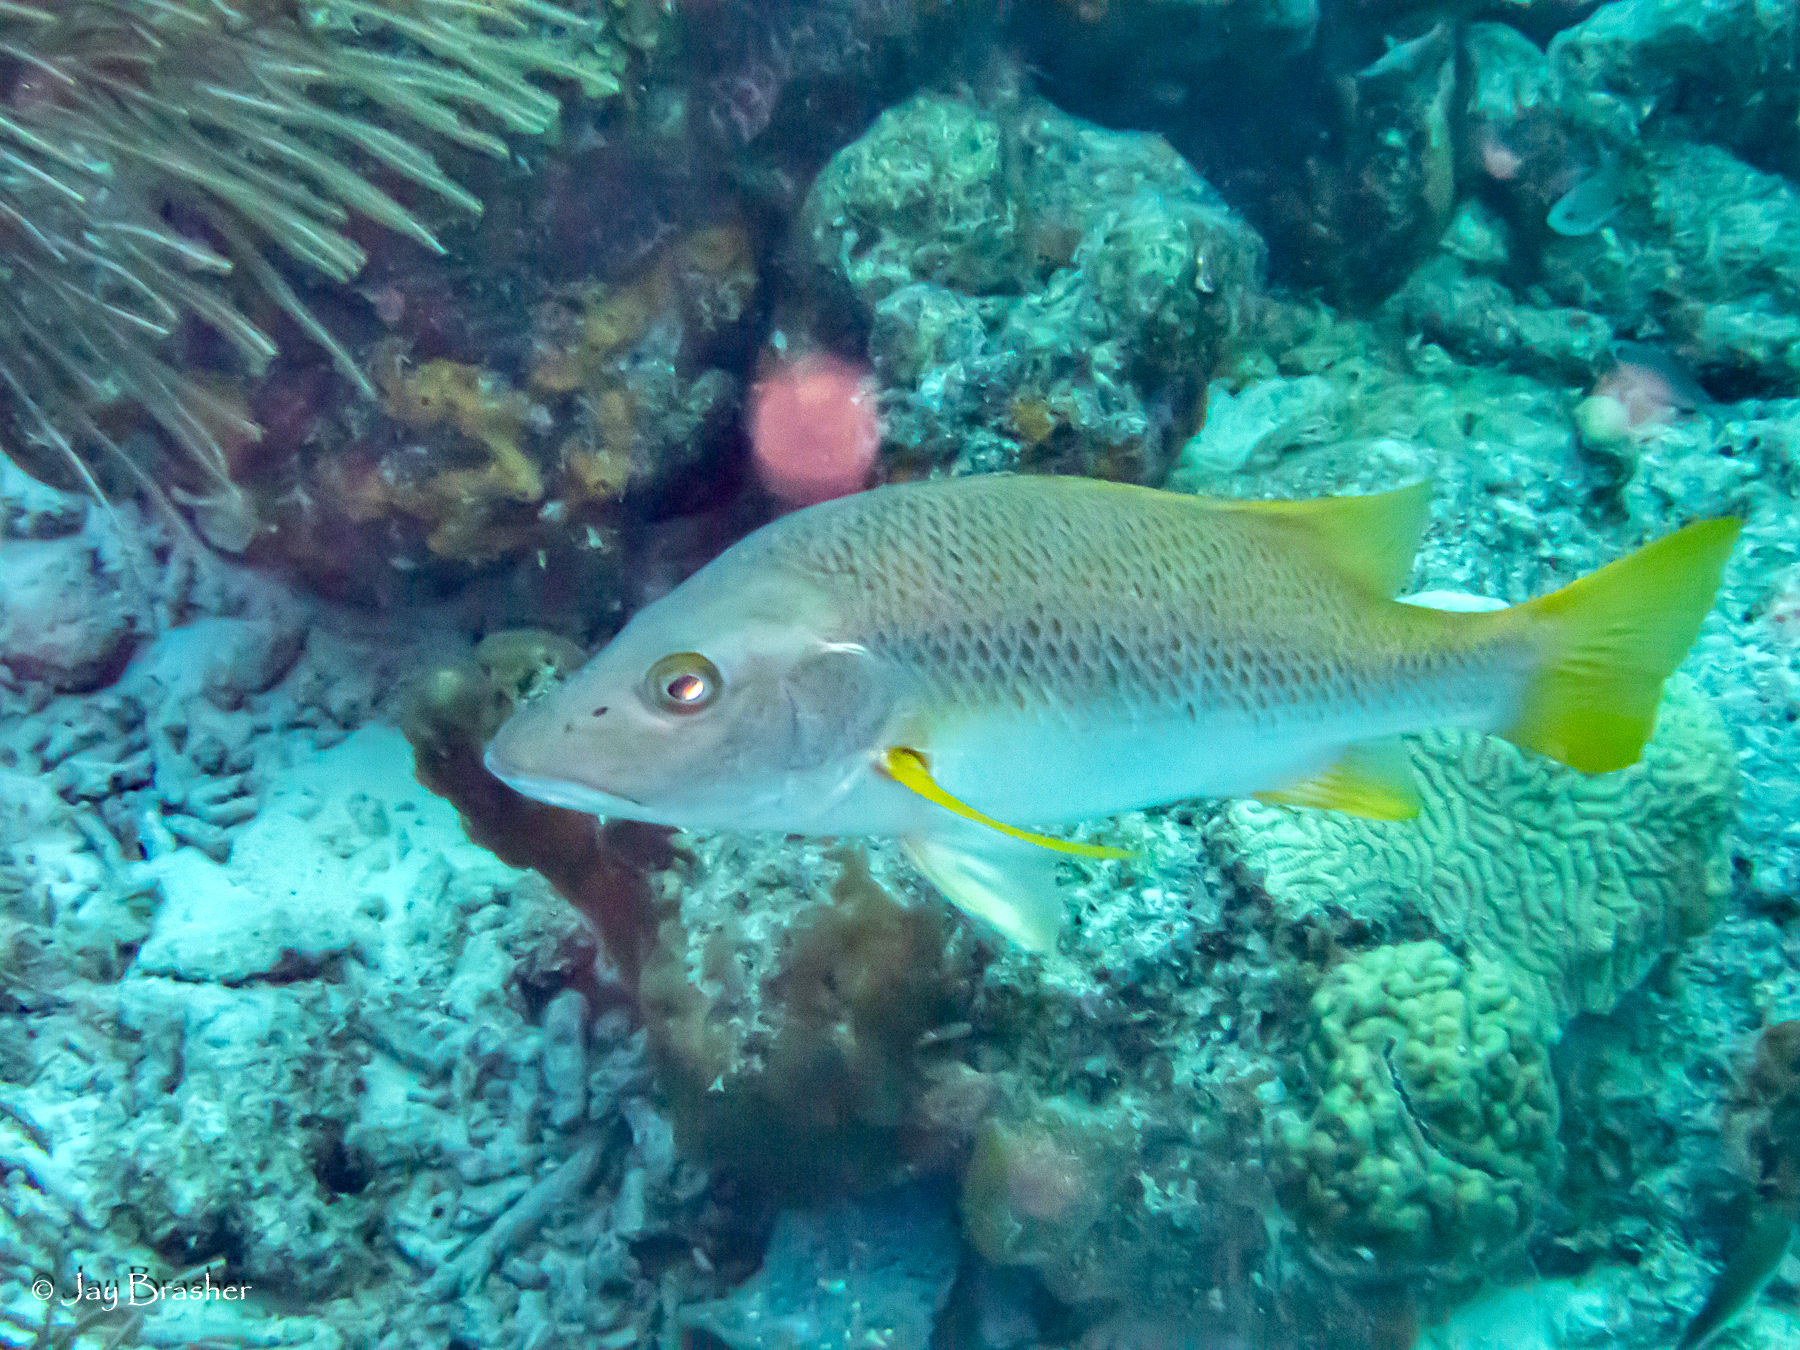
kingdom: Animalia
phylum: Chordata
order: Perciformes
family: Lutjanidae
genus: Lutjanus
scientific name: Lutjanus apodus
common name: Schoolmaster
